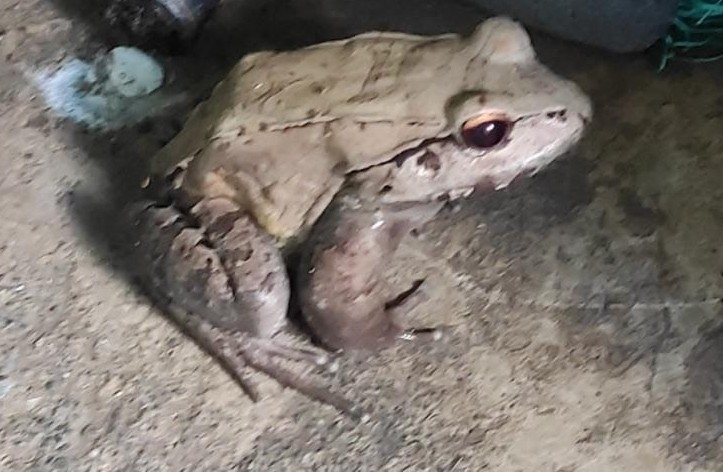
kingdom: Animalia
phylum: Chordata
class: Amphibia
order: Anura
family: Leptodactylidae
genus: Leptodactylus
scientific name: Leptodactylus savagei
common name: Savage's thin-toed frog
